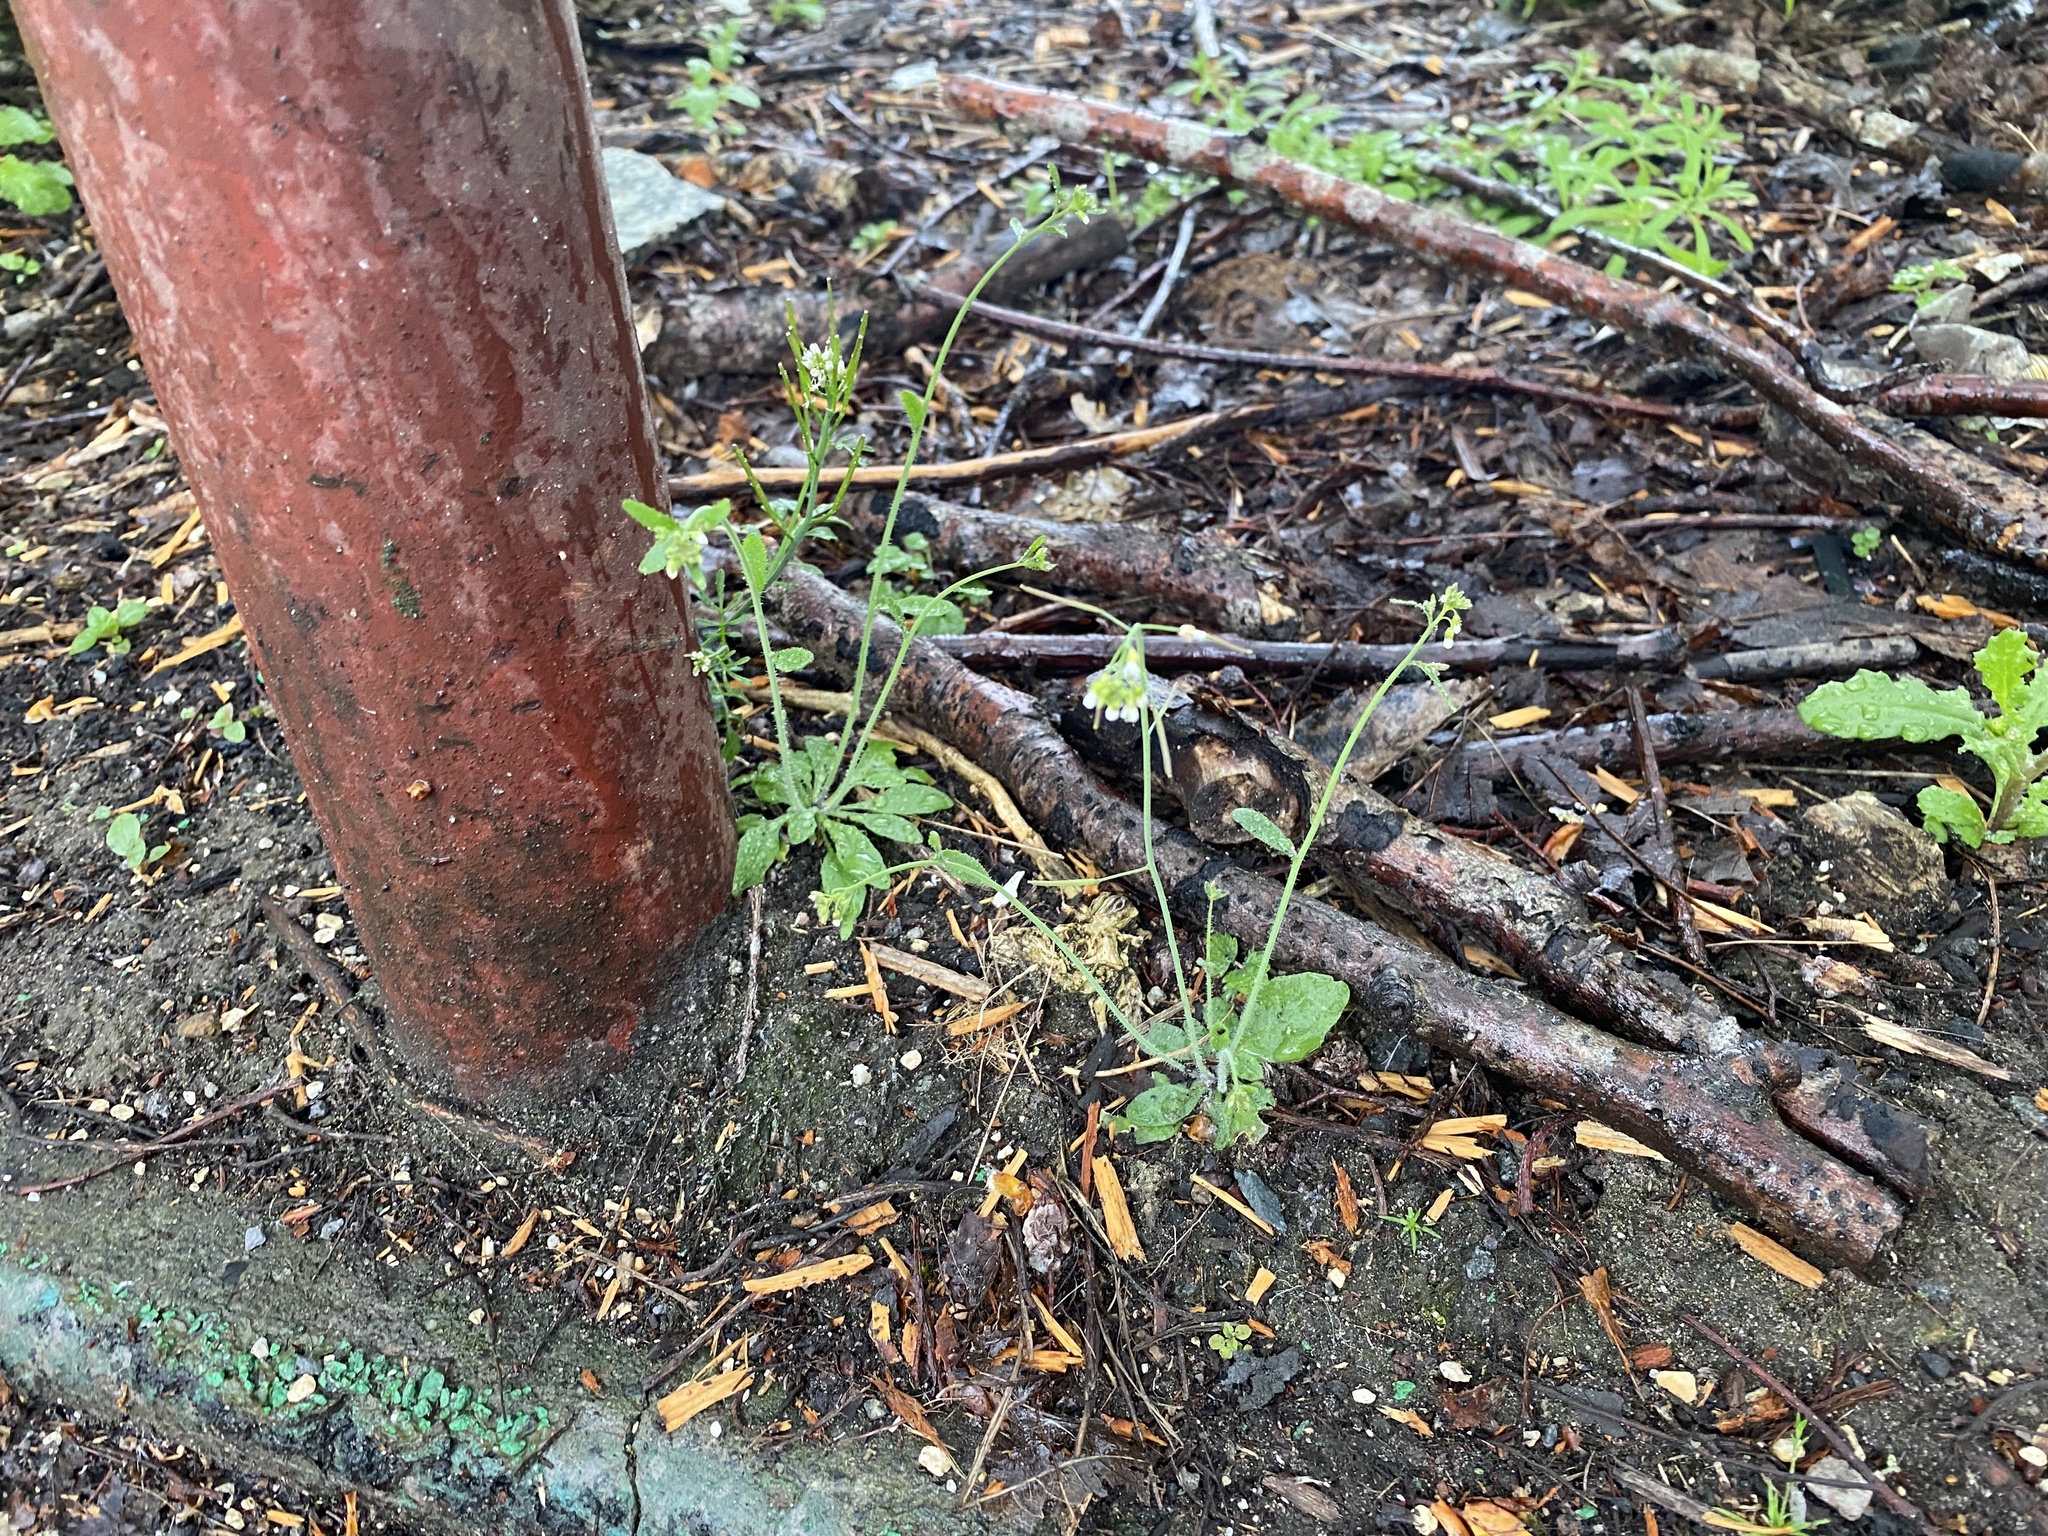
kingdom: Plantae
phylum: Tracheophyta
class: Magnoliopsida
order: Brassicales
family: Brassicaceae
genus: Arabidopsis
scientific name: Arabidopsis thaliana
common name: Thale cress
